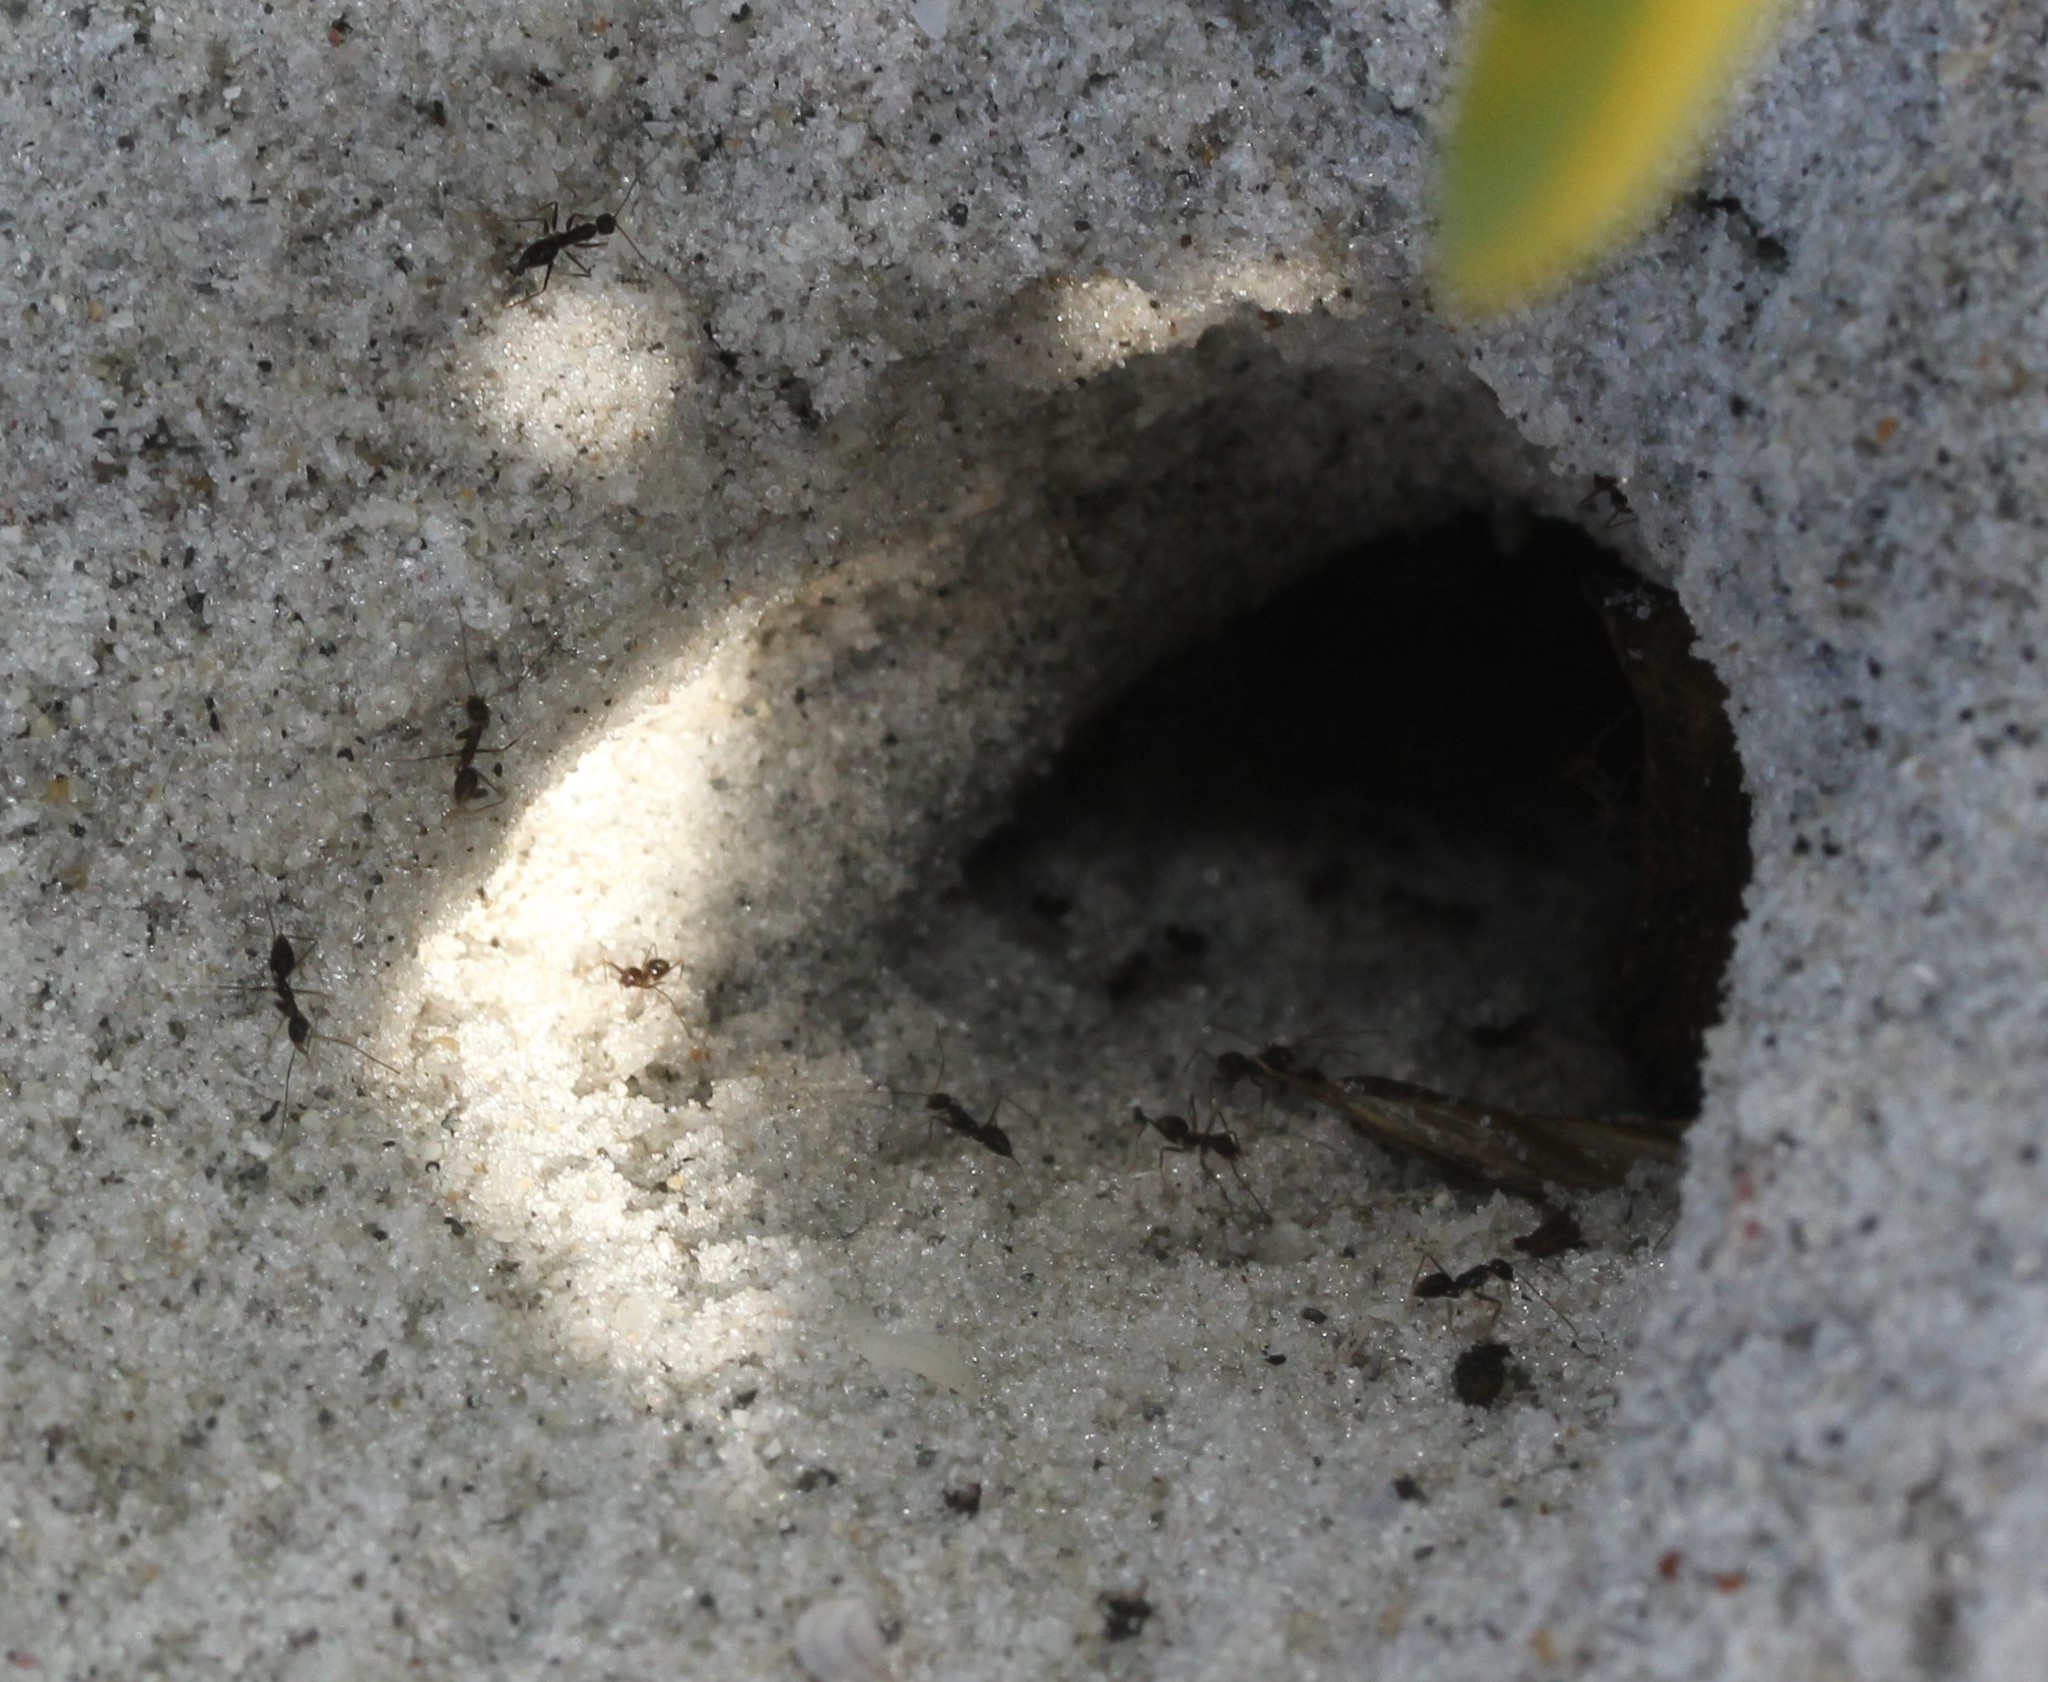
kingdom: Animalia
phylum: Arthropoda
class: Insecta
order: Hymenoptera
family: Formicidae
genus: Paratrechina
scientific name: Paratrechina longicornis
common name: Longhorned crazy ant
